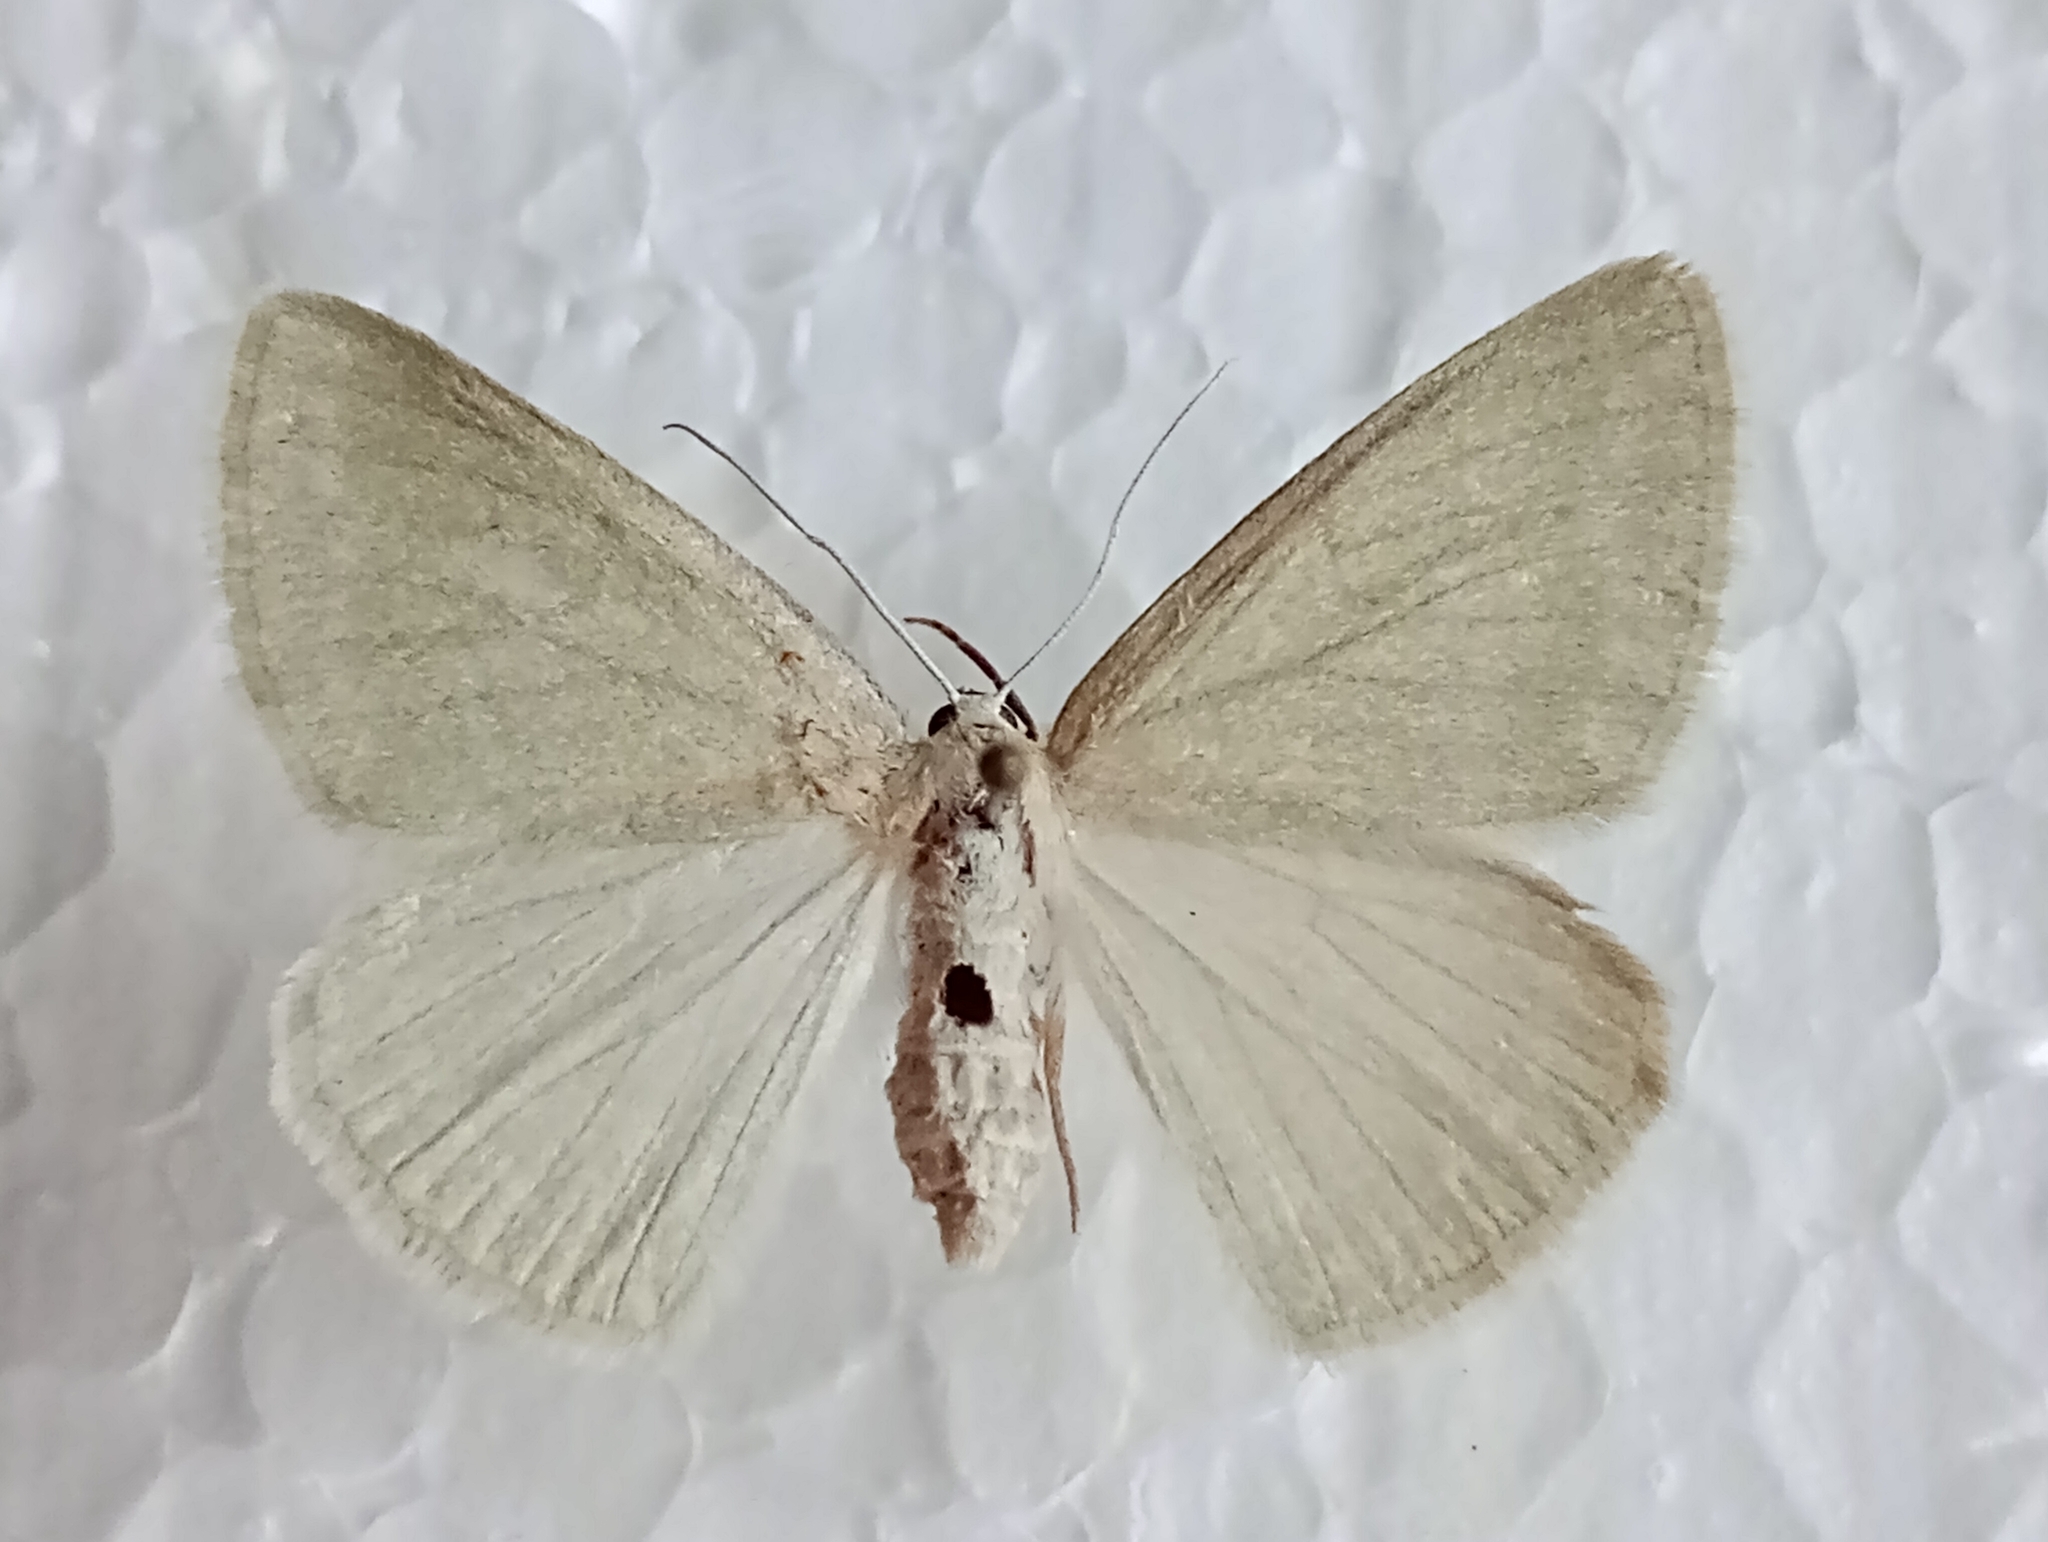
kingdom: Animalia
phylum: Arthropoda
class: Insecta
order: Lepidoptera
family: Geometridae
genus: Pseudoterpna
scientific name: Pseudoterpna pruinata
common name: Grass emerald
